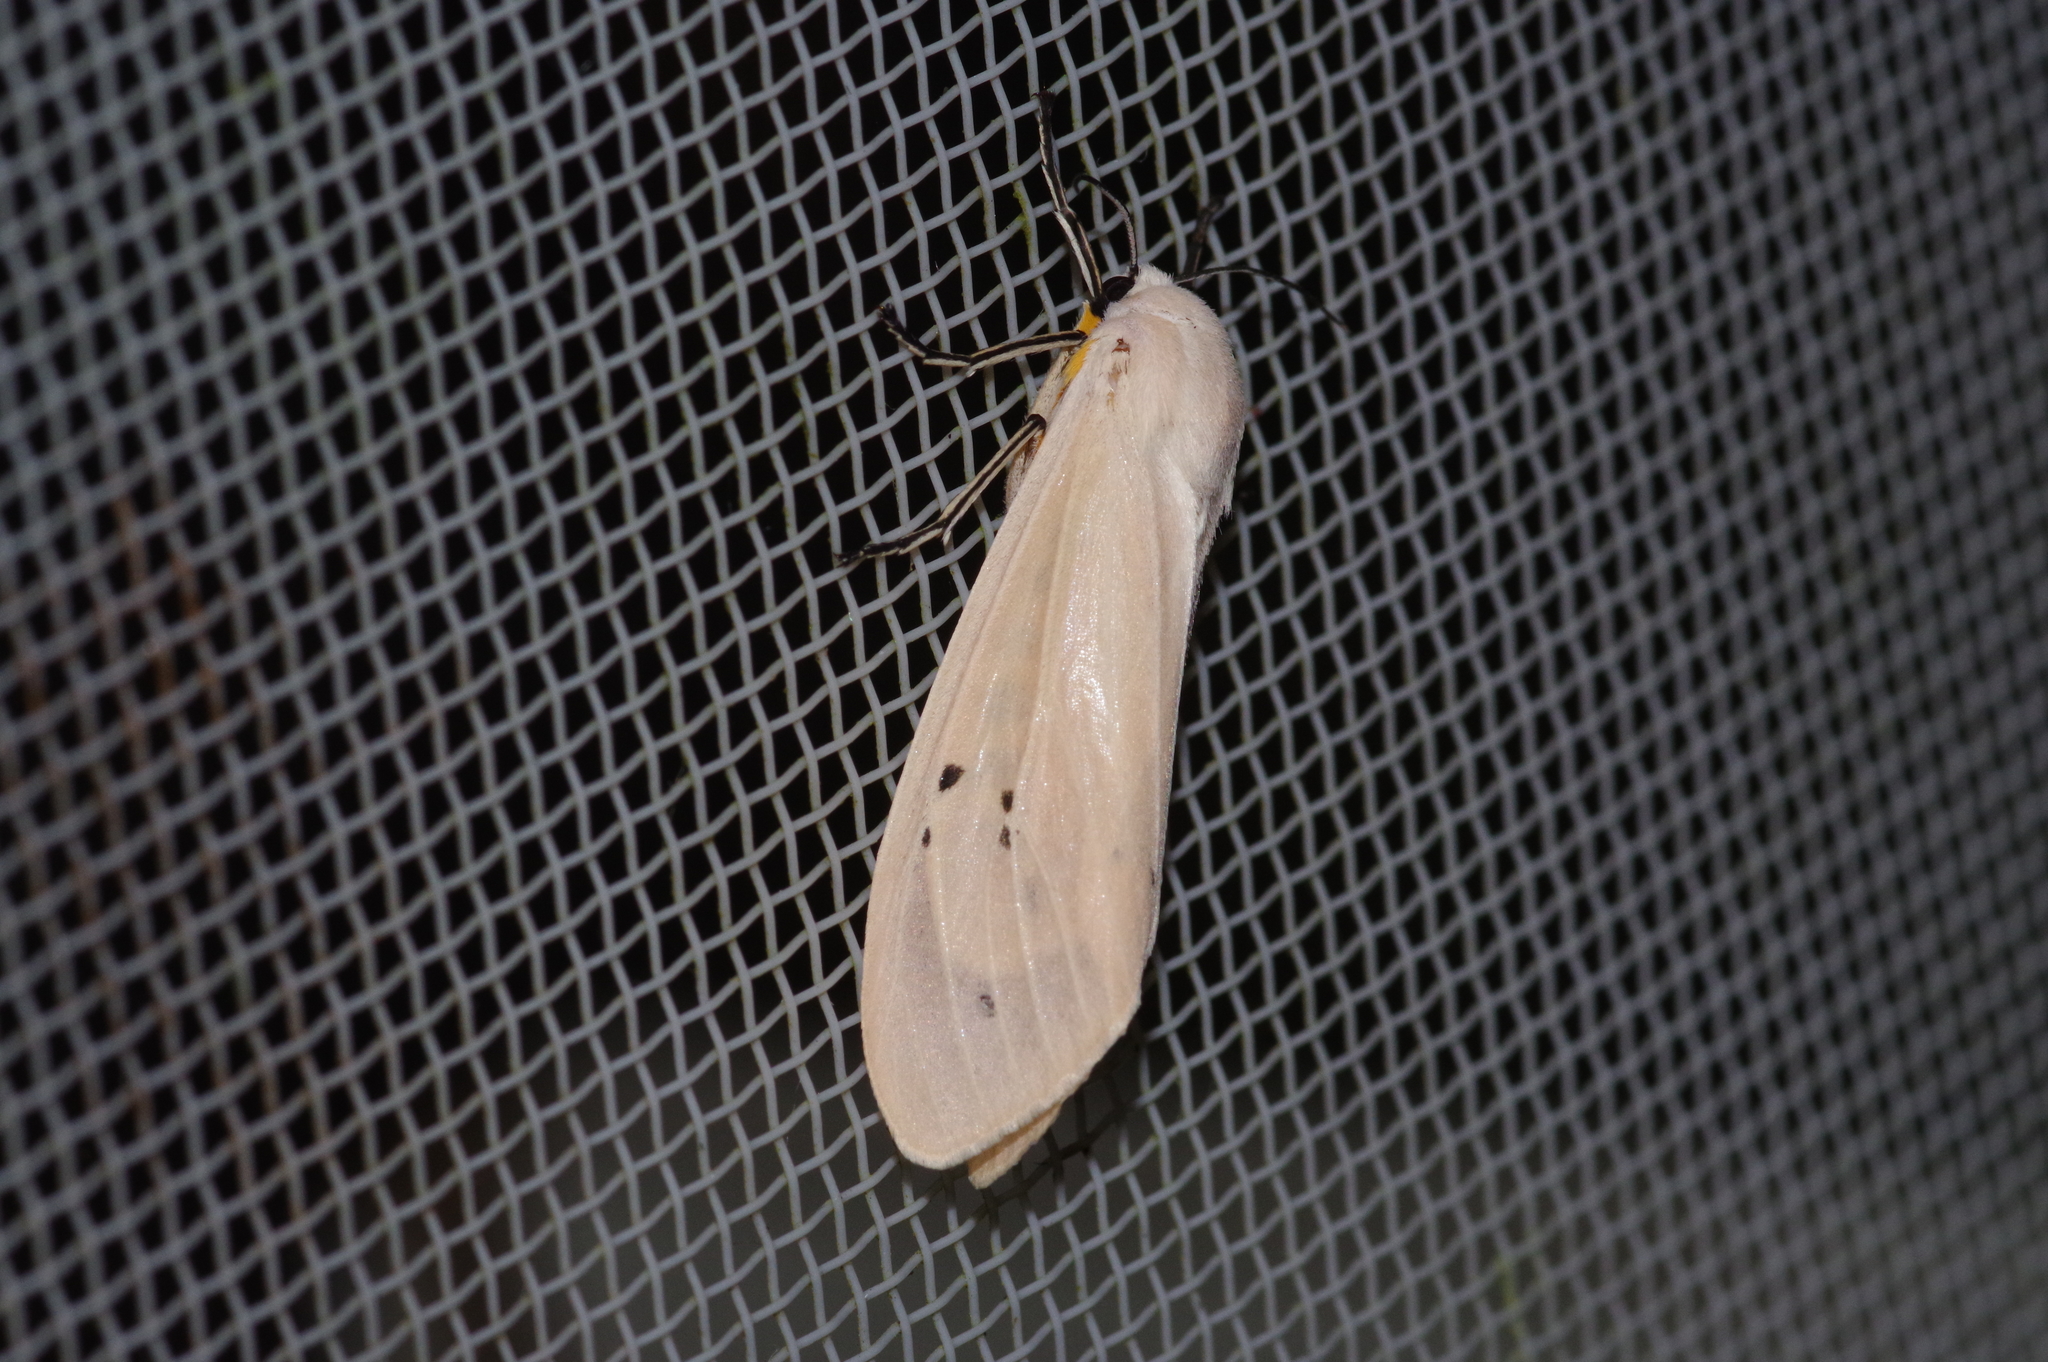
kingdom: Animalia
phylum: Arthropoda
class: Insecta
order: Lepidoptera
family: Erebidae
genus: Creatonotos
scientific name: Creatonotos transiens
